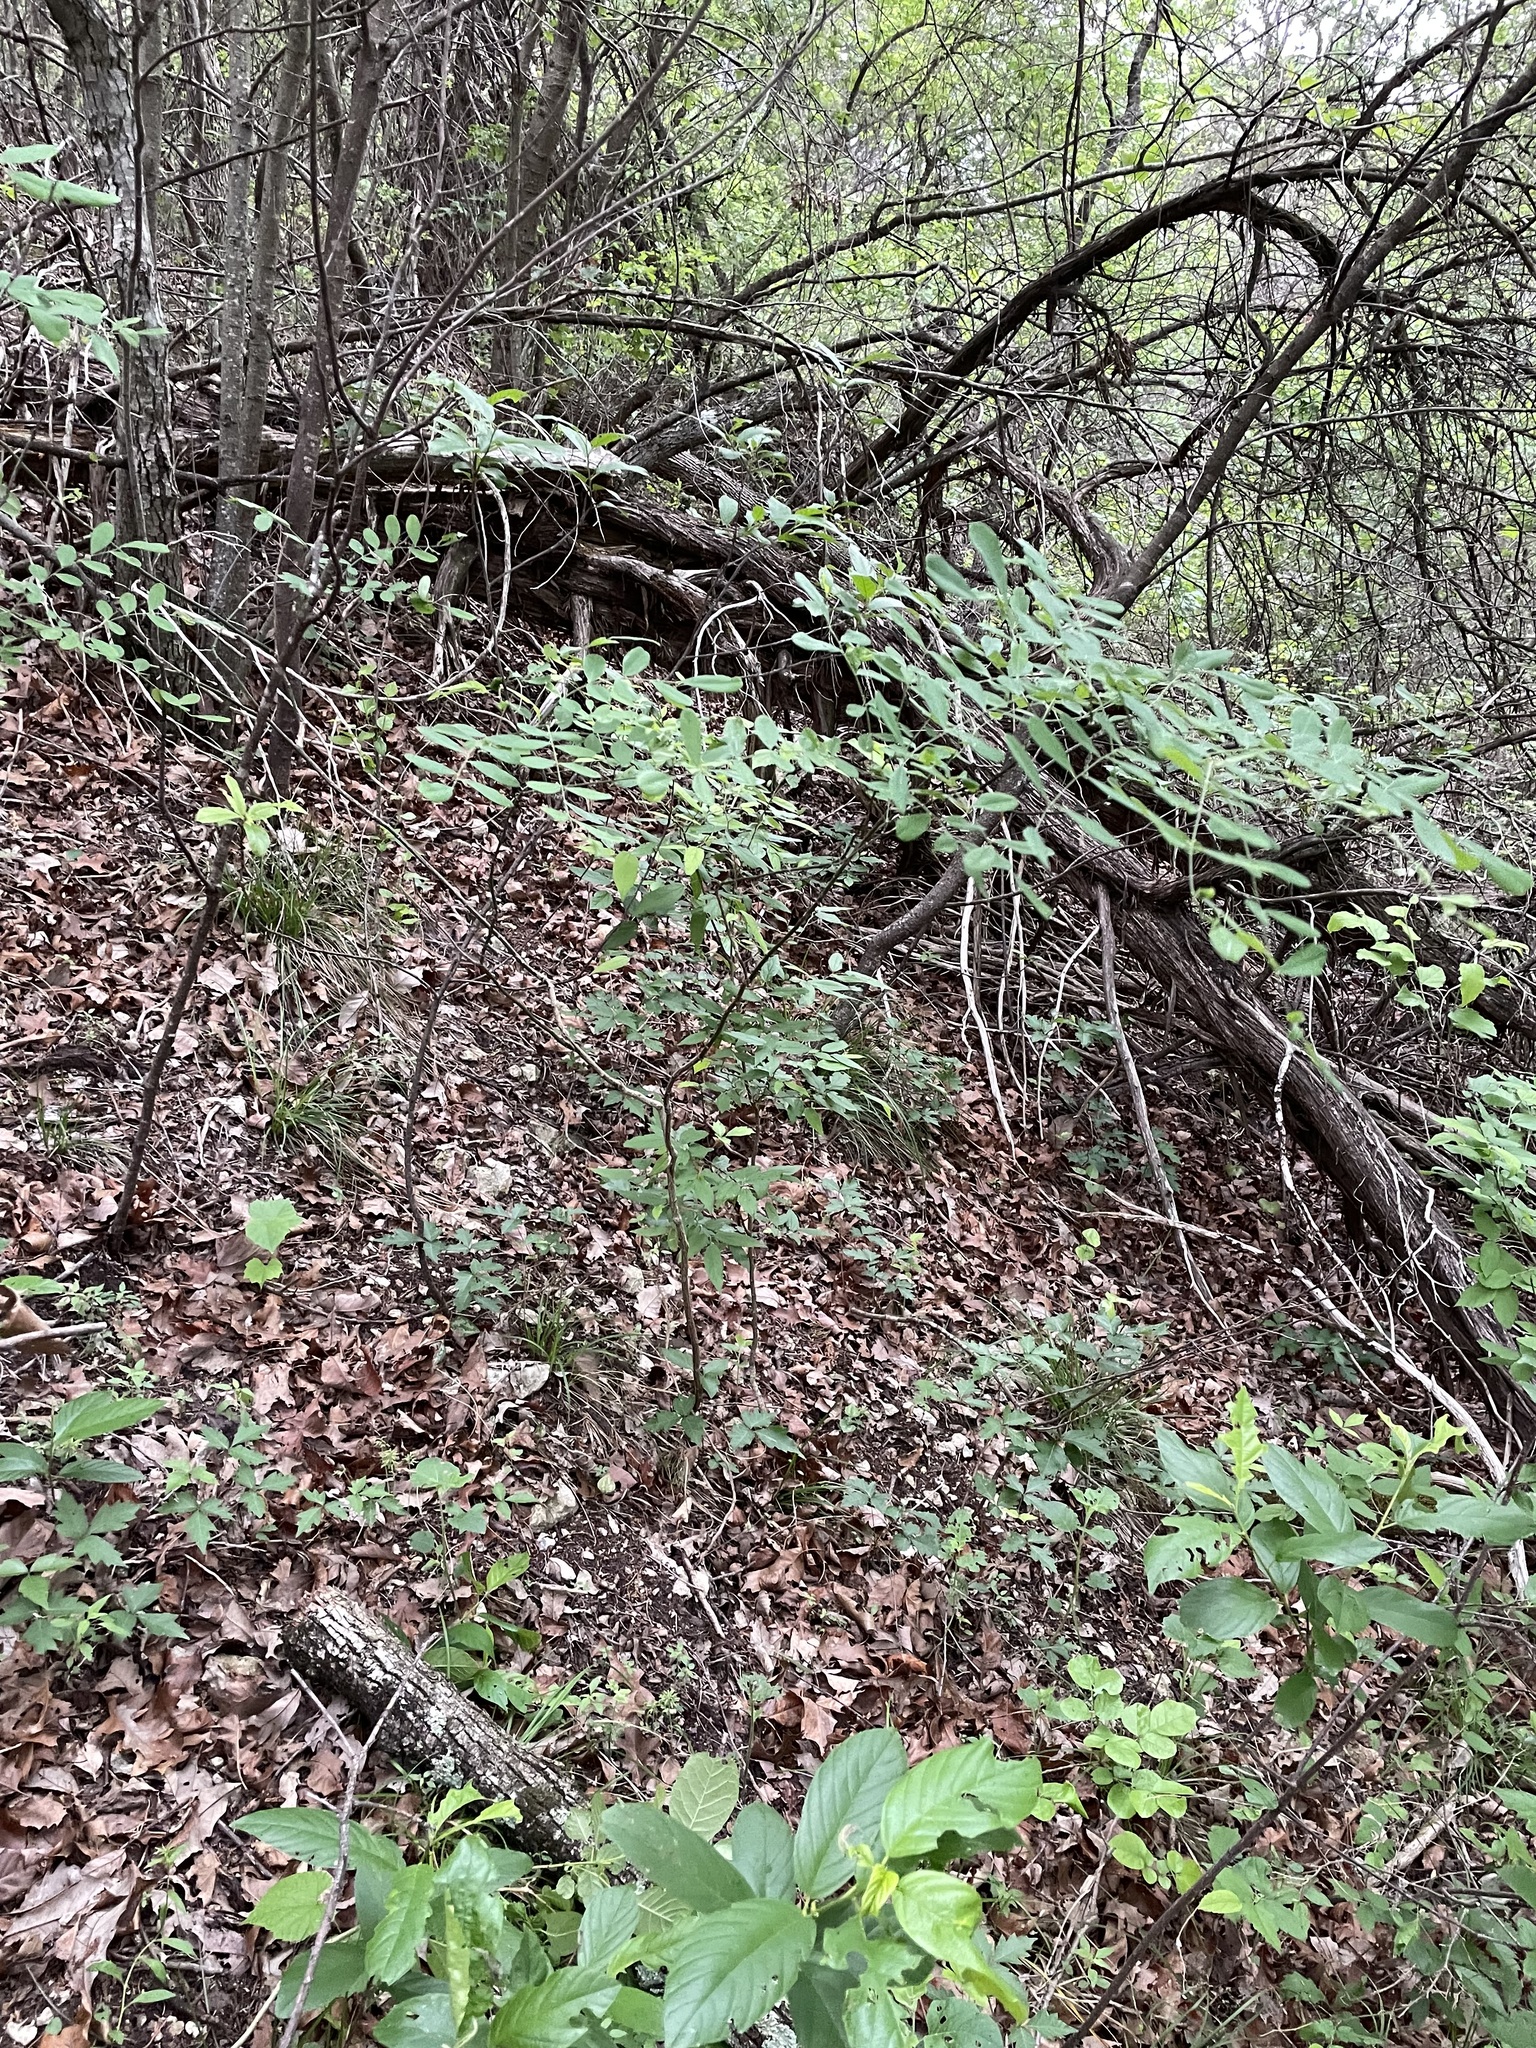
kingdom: Plantae
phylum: Tracheophyta
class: Magnoliopsida
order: Fabales
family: Fabaceae
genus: Styphnolobium
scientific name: Styphnolobium affine
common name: Texas sophora
